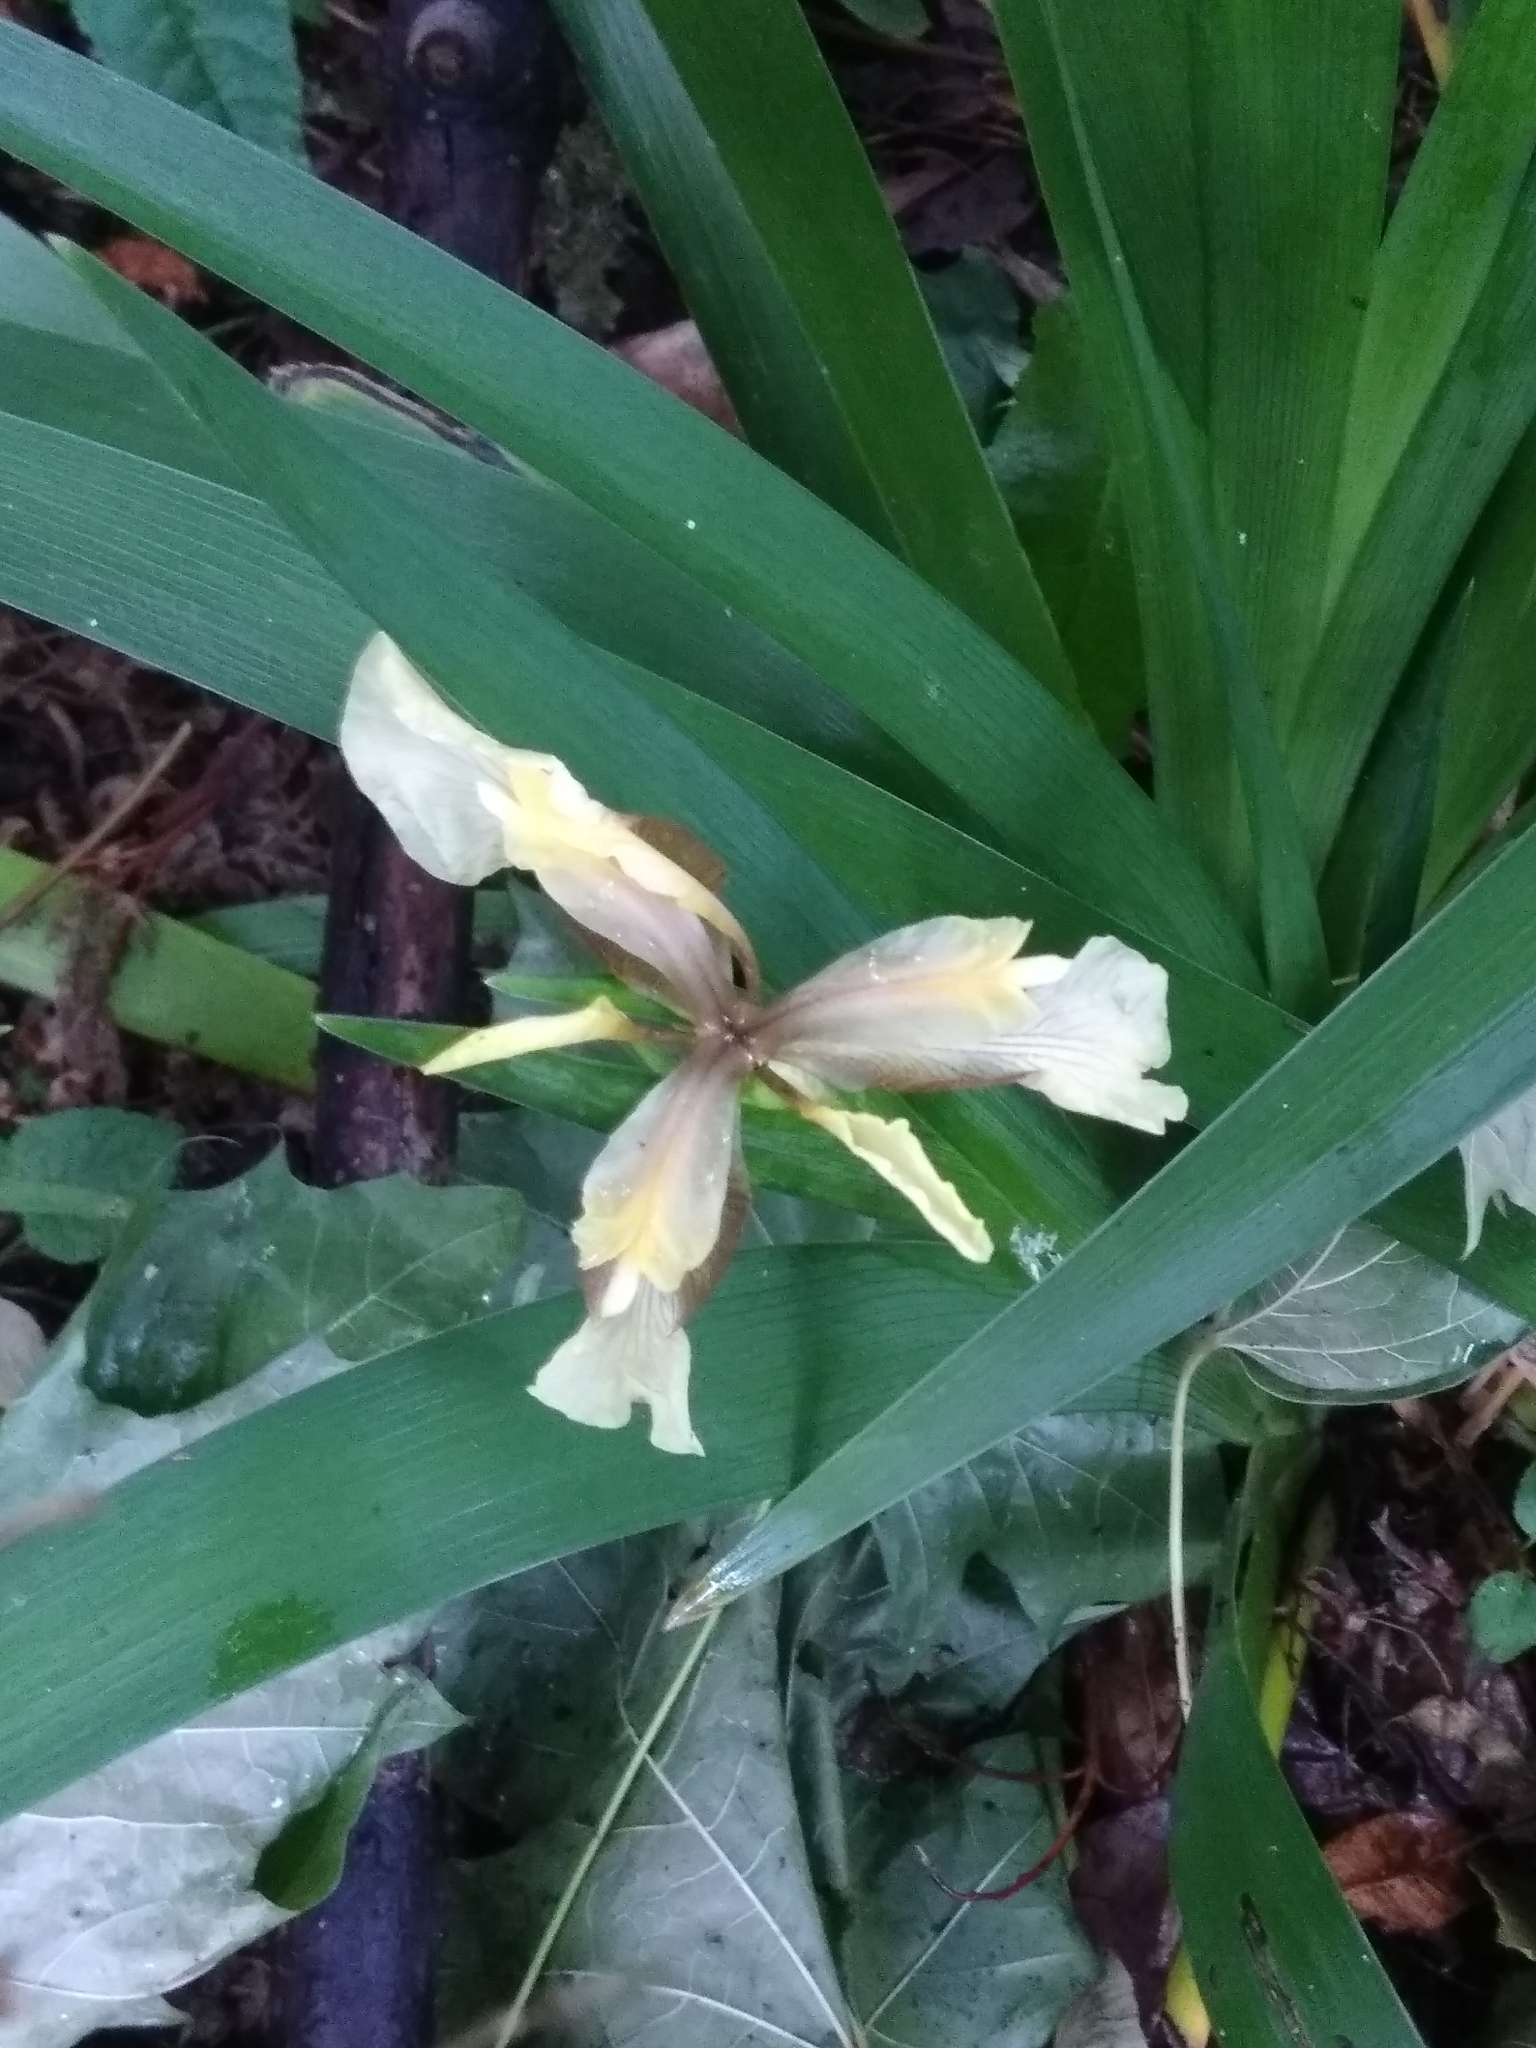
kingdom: Plantae
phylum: Tracheophyta
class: Liliopsida
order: Asparagales
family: Iridaceae
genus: Iris
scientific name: Iris foetidissima
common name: Stinking iris
